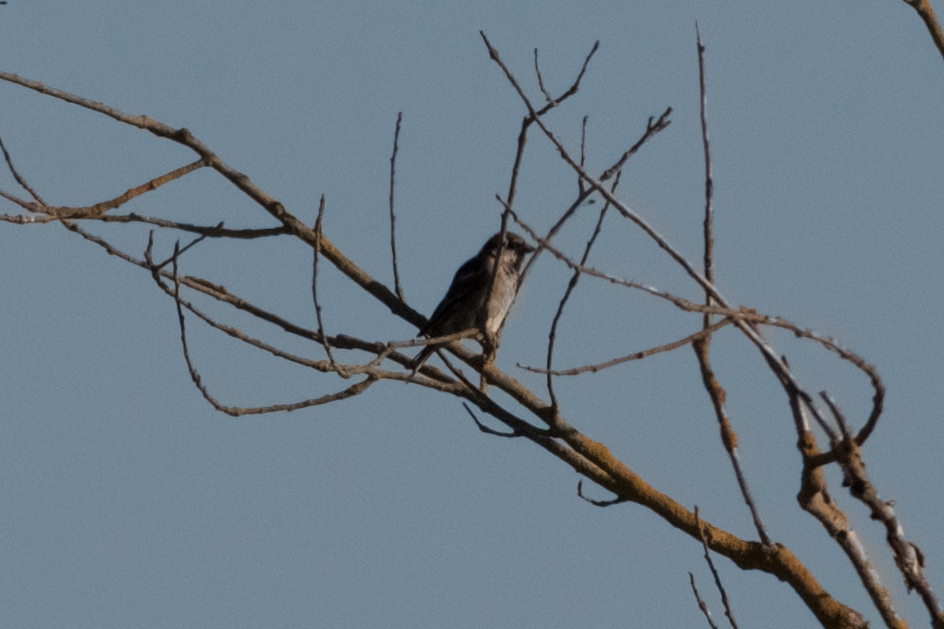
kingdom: Animalia
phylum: Chordata
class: Aves
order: Passeriformes
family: Passeridae
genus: Passer
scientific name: Passer domesticus
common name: House sparrow
